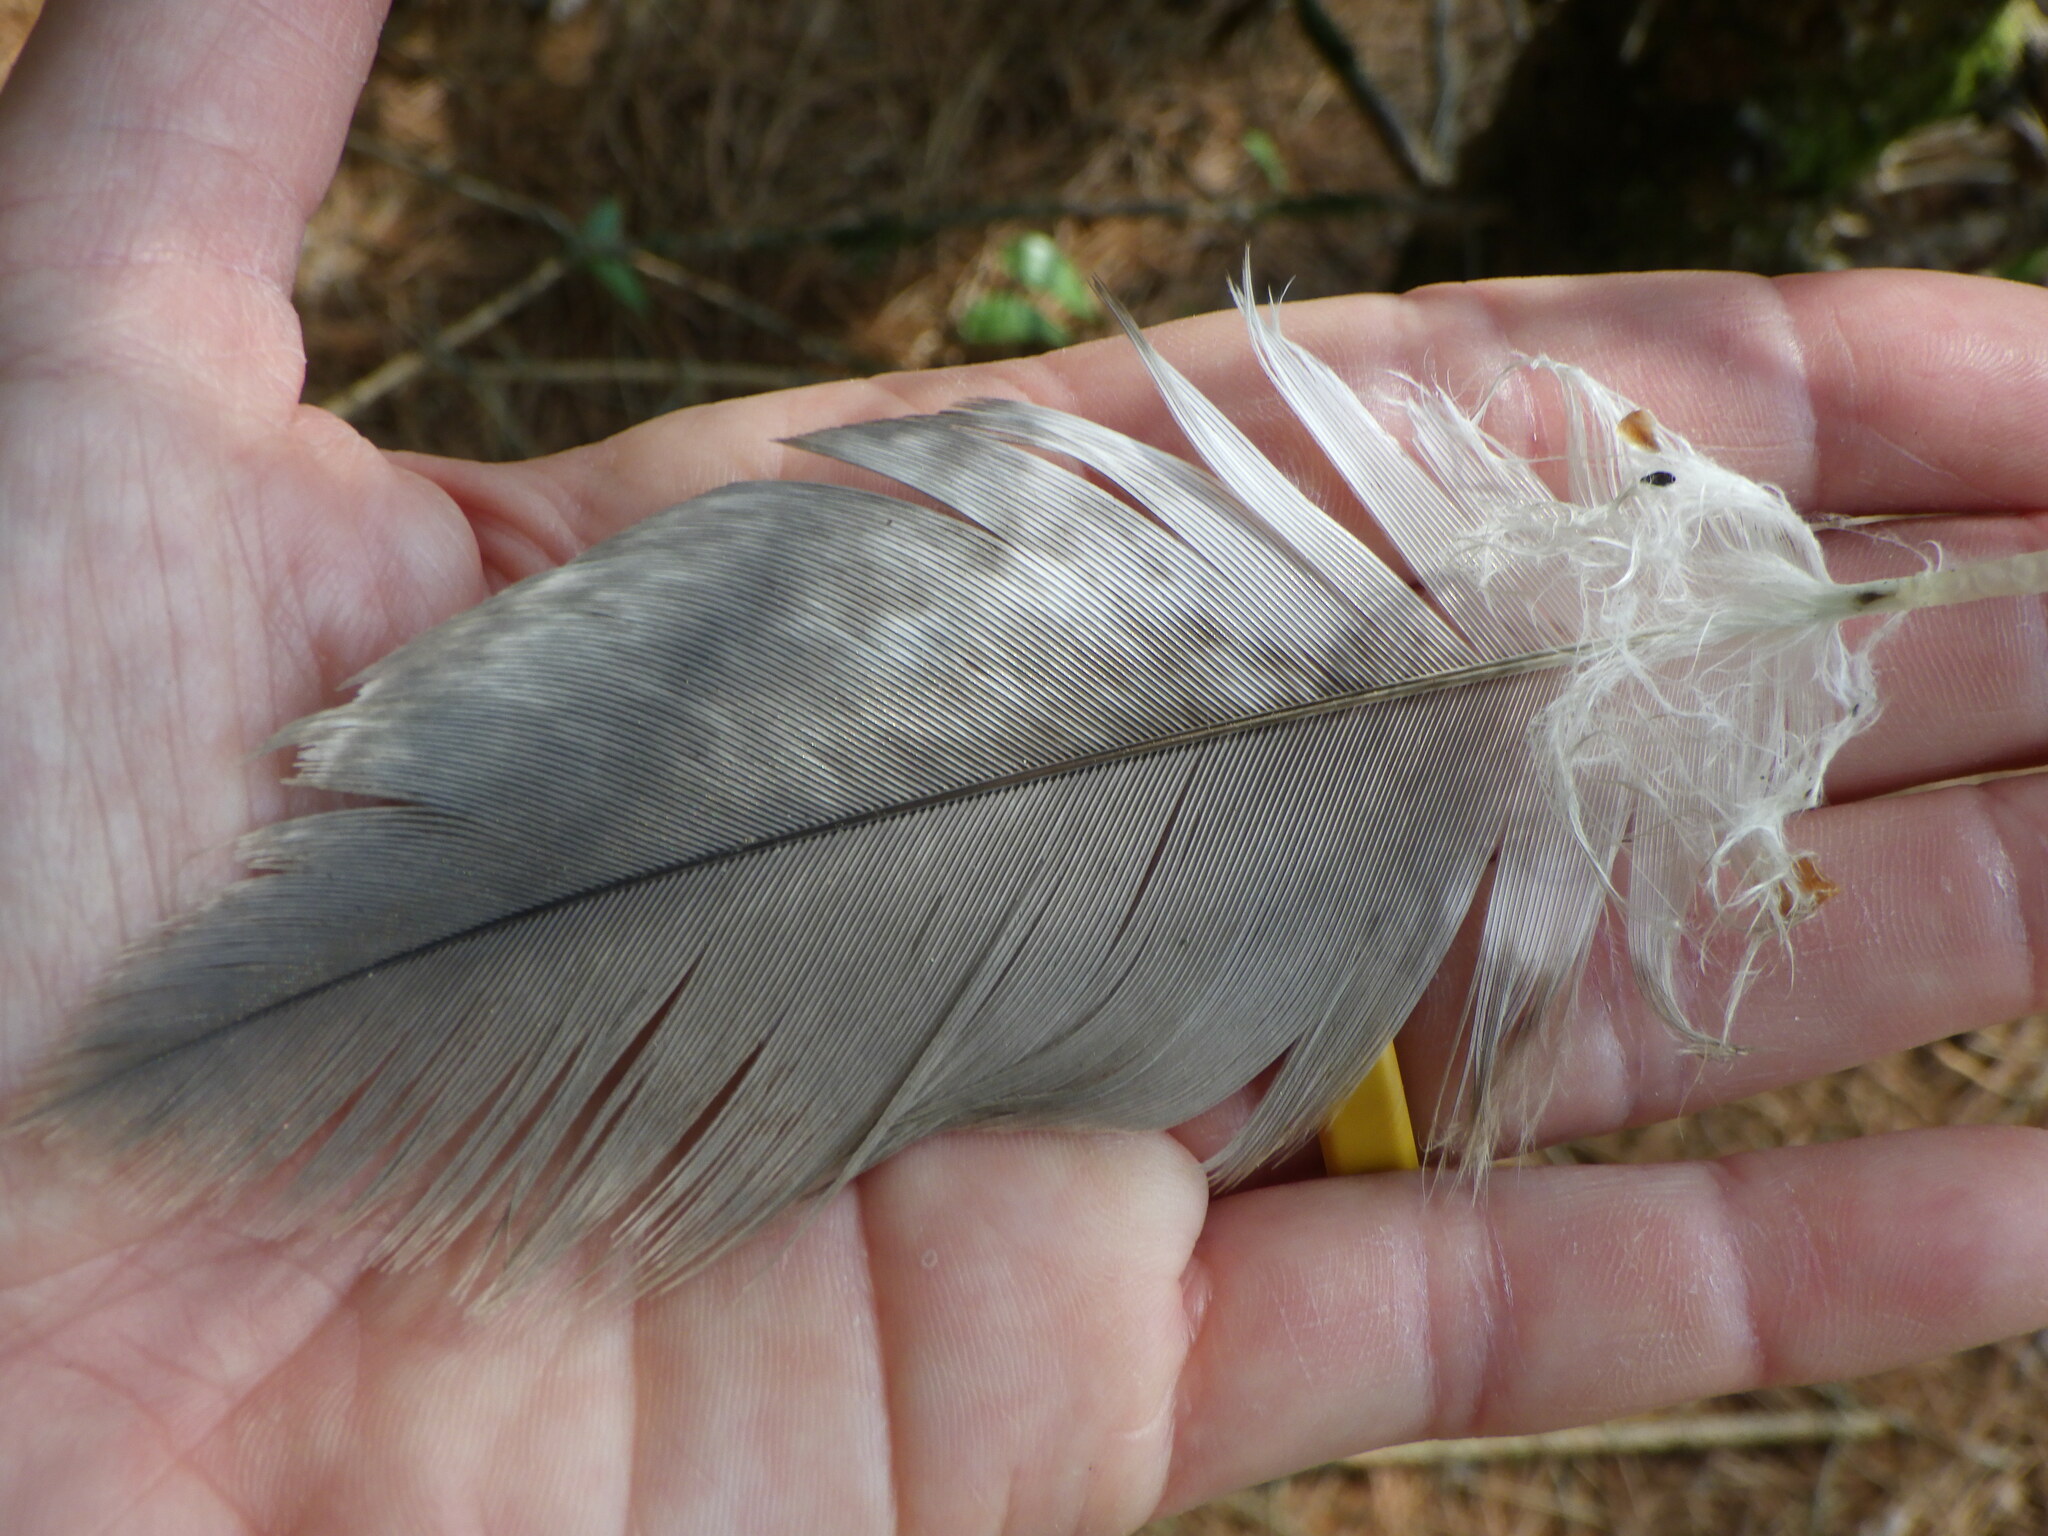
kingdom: Animalia
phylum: Chordata
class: Aves
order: Accipitriformes
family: Accipitridae
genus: Haliaeetus
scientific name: Haliaeetus leucocephalus
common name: Bald eagle
